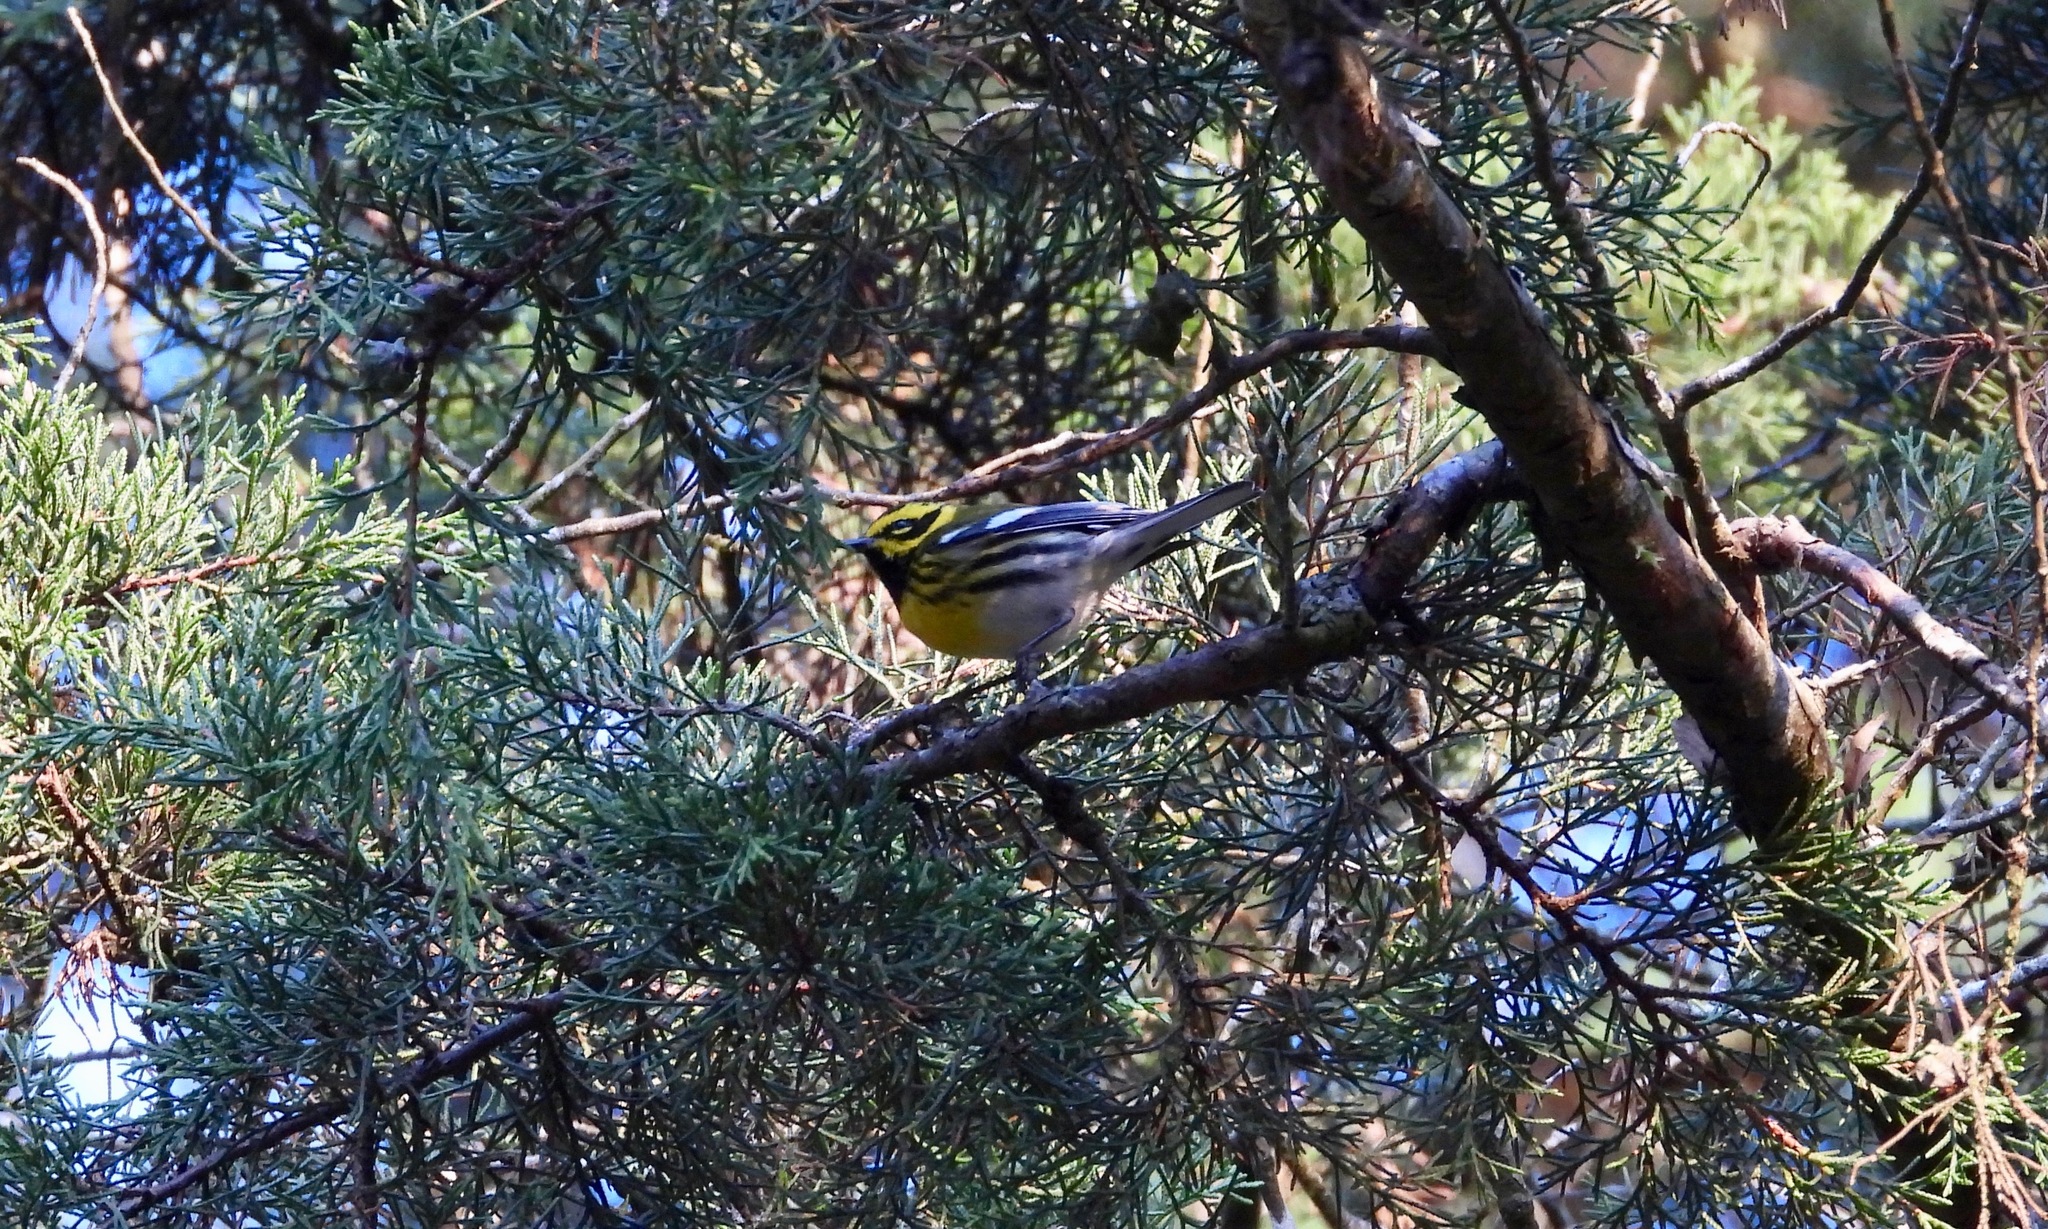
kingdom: Animalia
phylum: Chordata
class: Aves
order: Passeriformes
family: Parulidae
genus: Setophaga
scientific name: Setophaga townsendi
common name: Townsend's warbler
